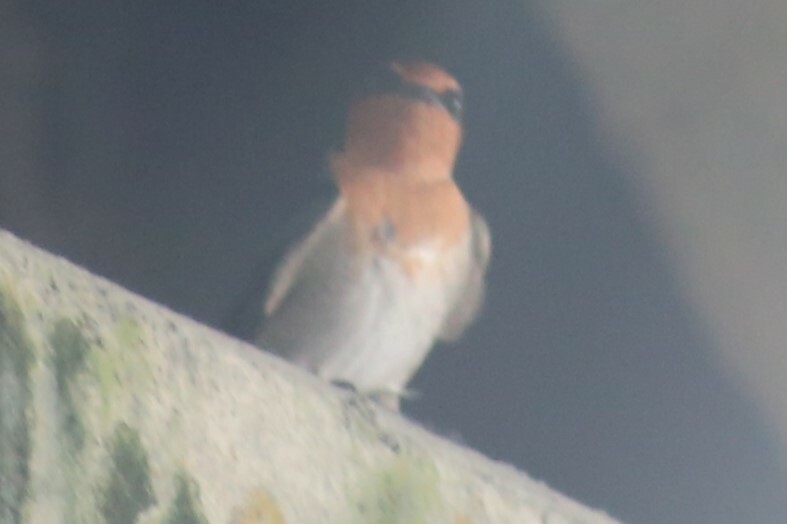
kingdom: Animalia
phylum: Chordata
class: Aves
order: Passeriformes
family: Hirundinidae
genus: Hirundo
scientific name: Hirundo neoxena
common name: Welcome swallow
